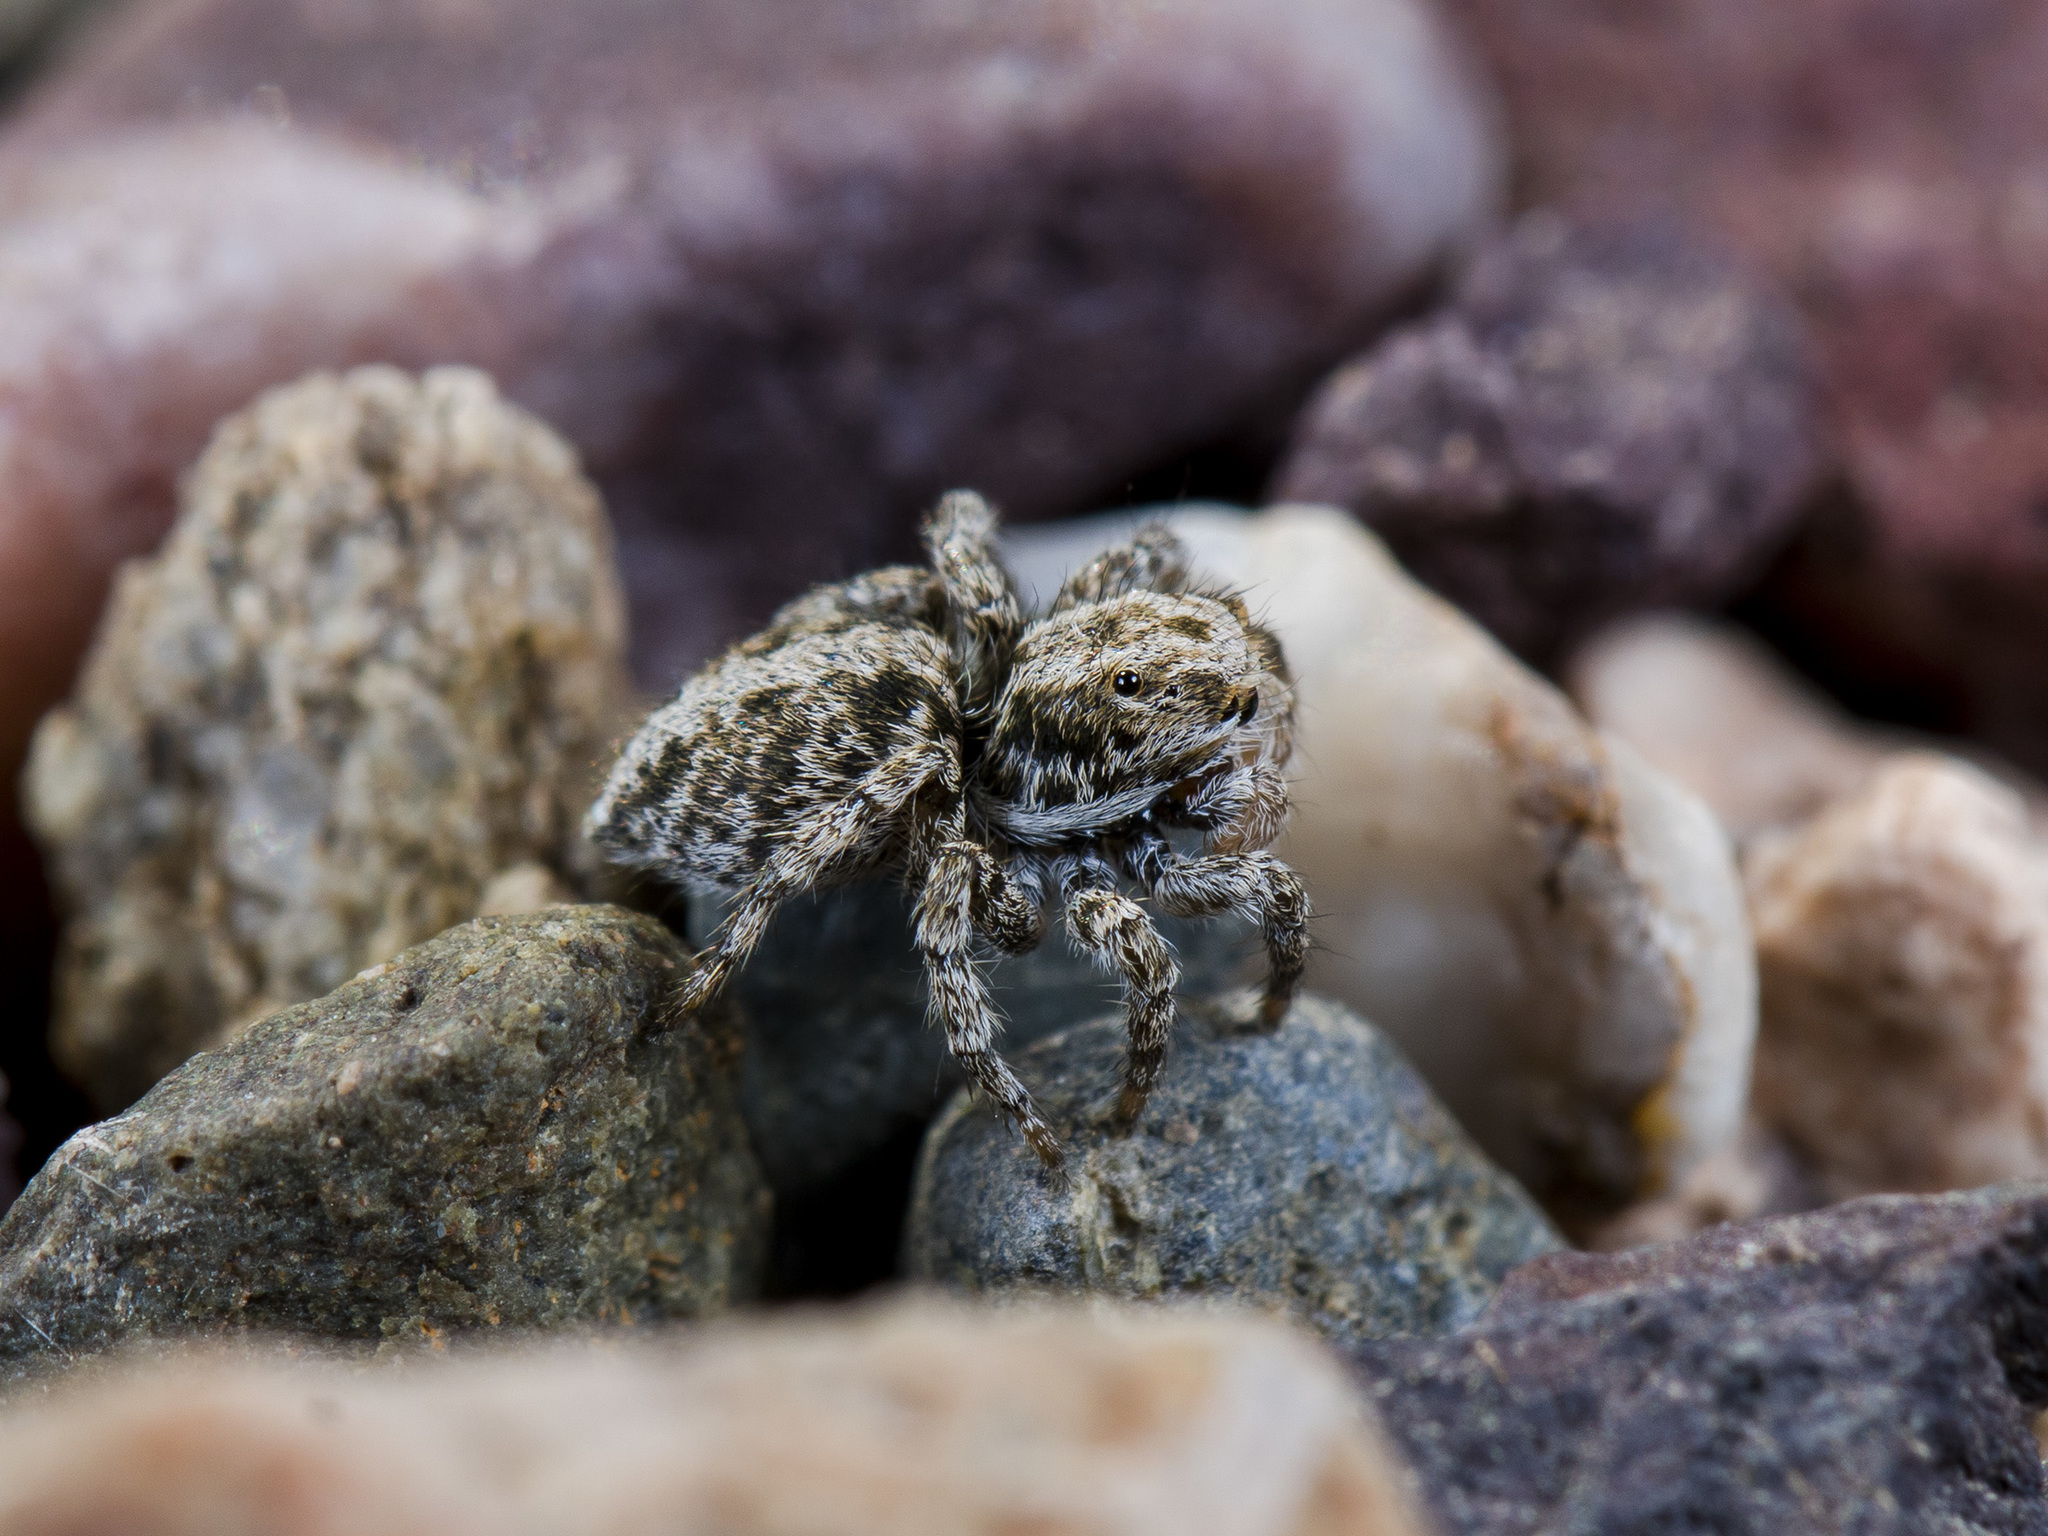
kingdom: Animalia
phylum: Arthropoda
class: Arachnida
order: Araneae
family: Salticidae
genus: Aelurillus
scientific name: Aelurillus nenilini
